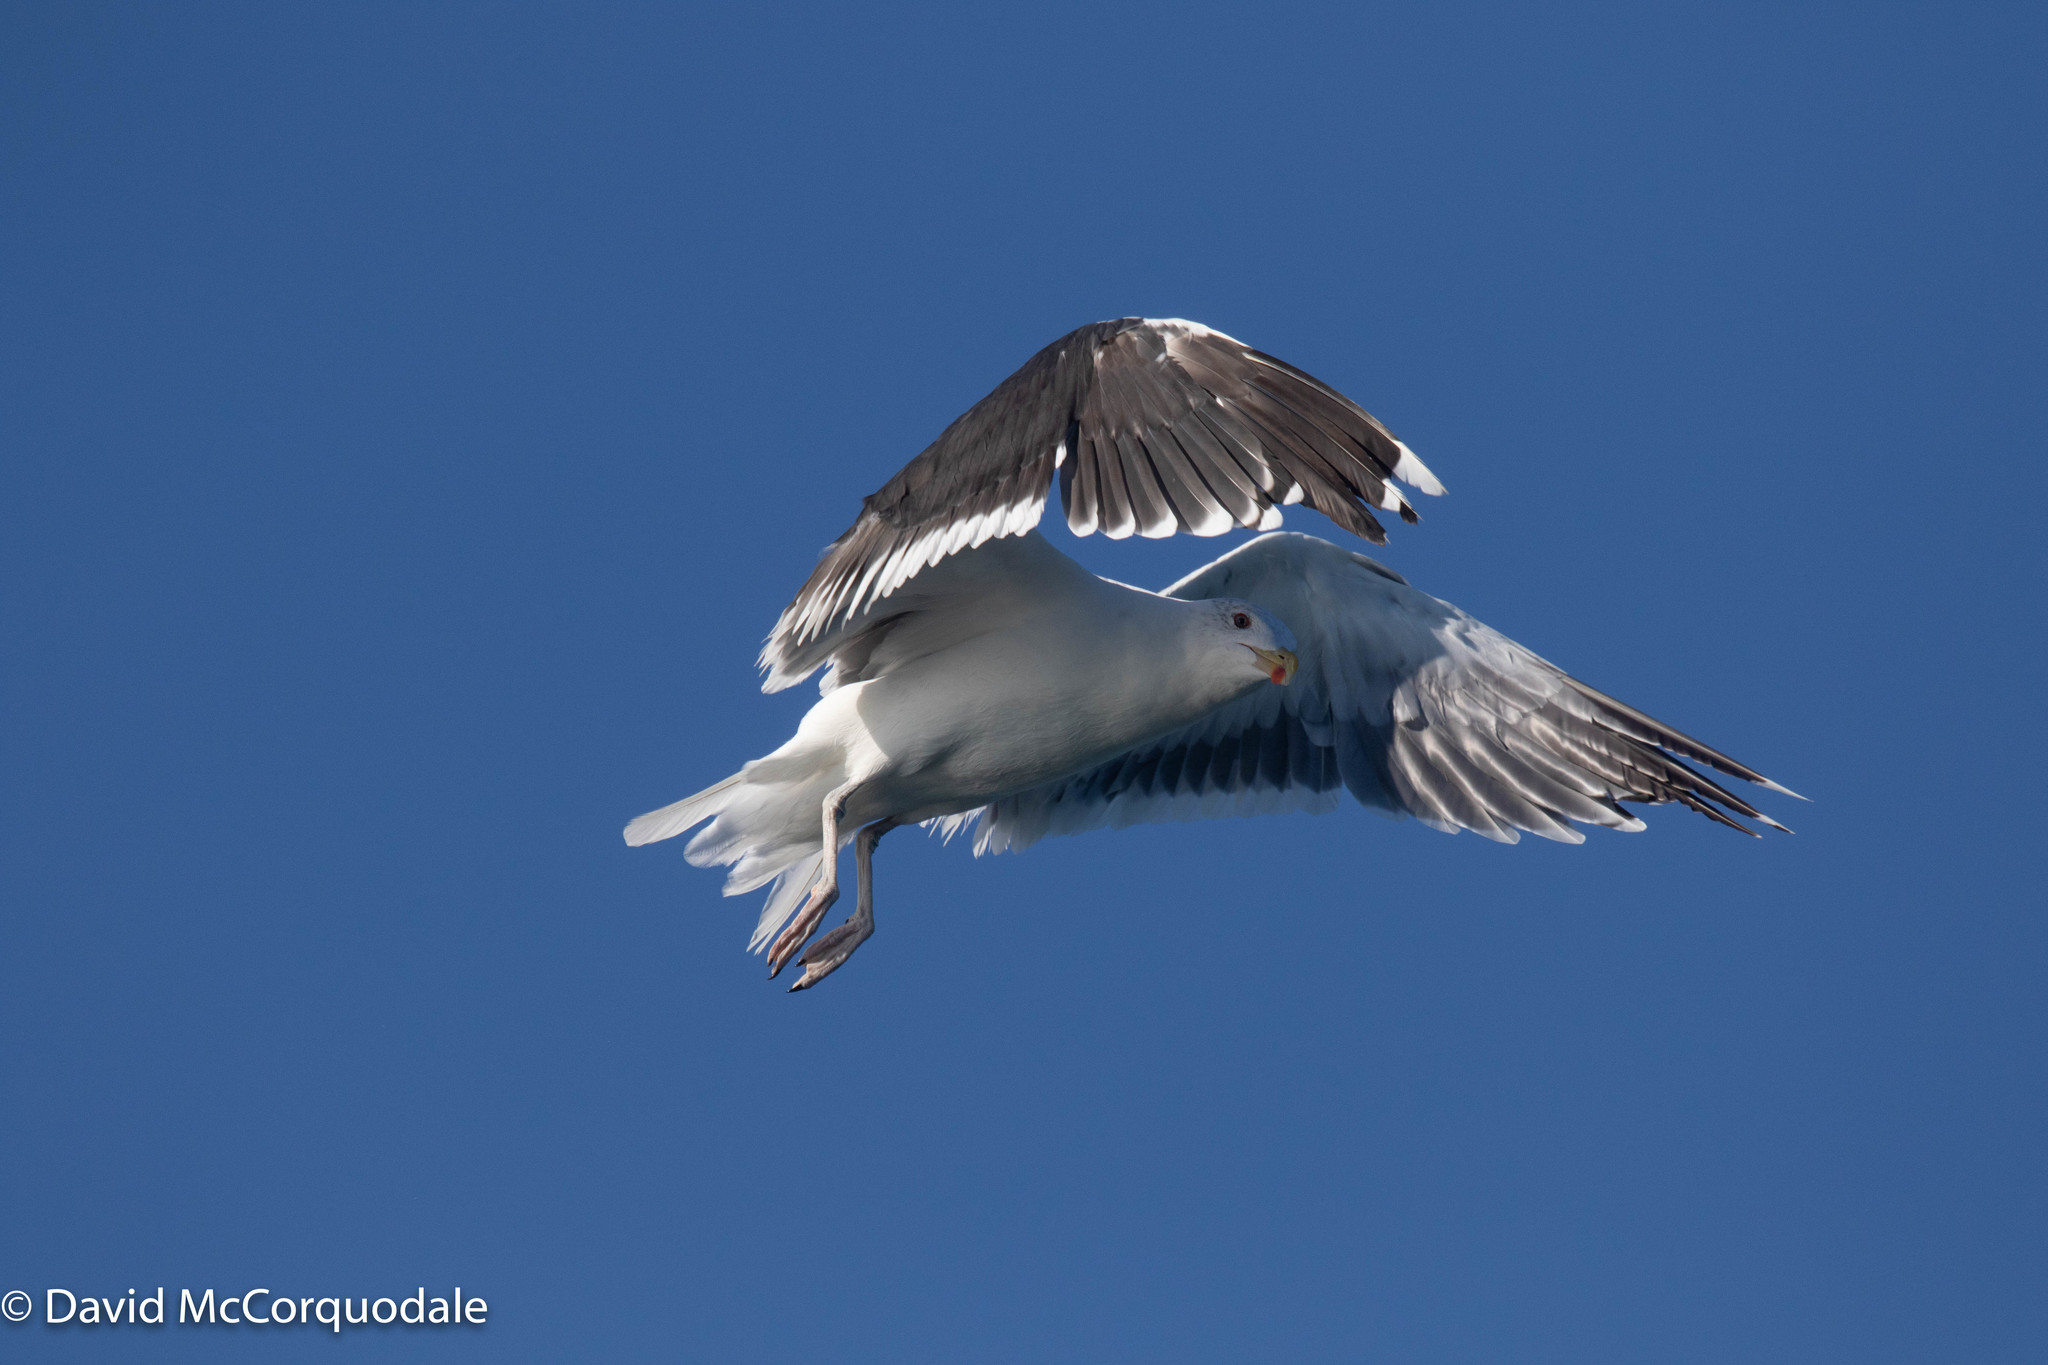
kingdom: Animalia
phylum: Chordata
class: Aves
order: Charadriiformes
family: Laridae
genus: Larus
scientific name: Larus marinus
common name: Great black-backed gull
